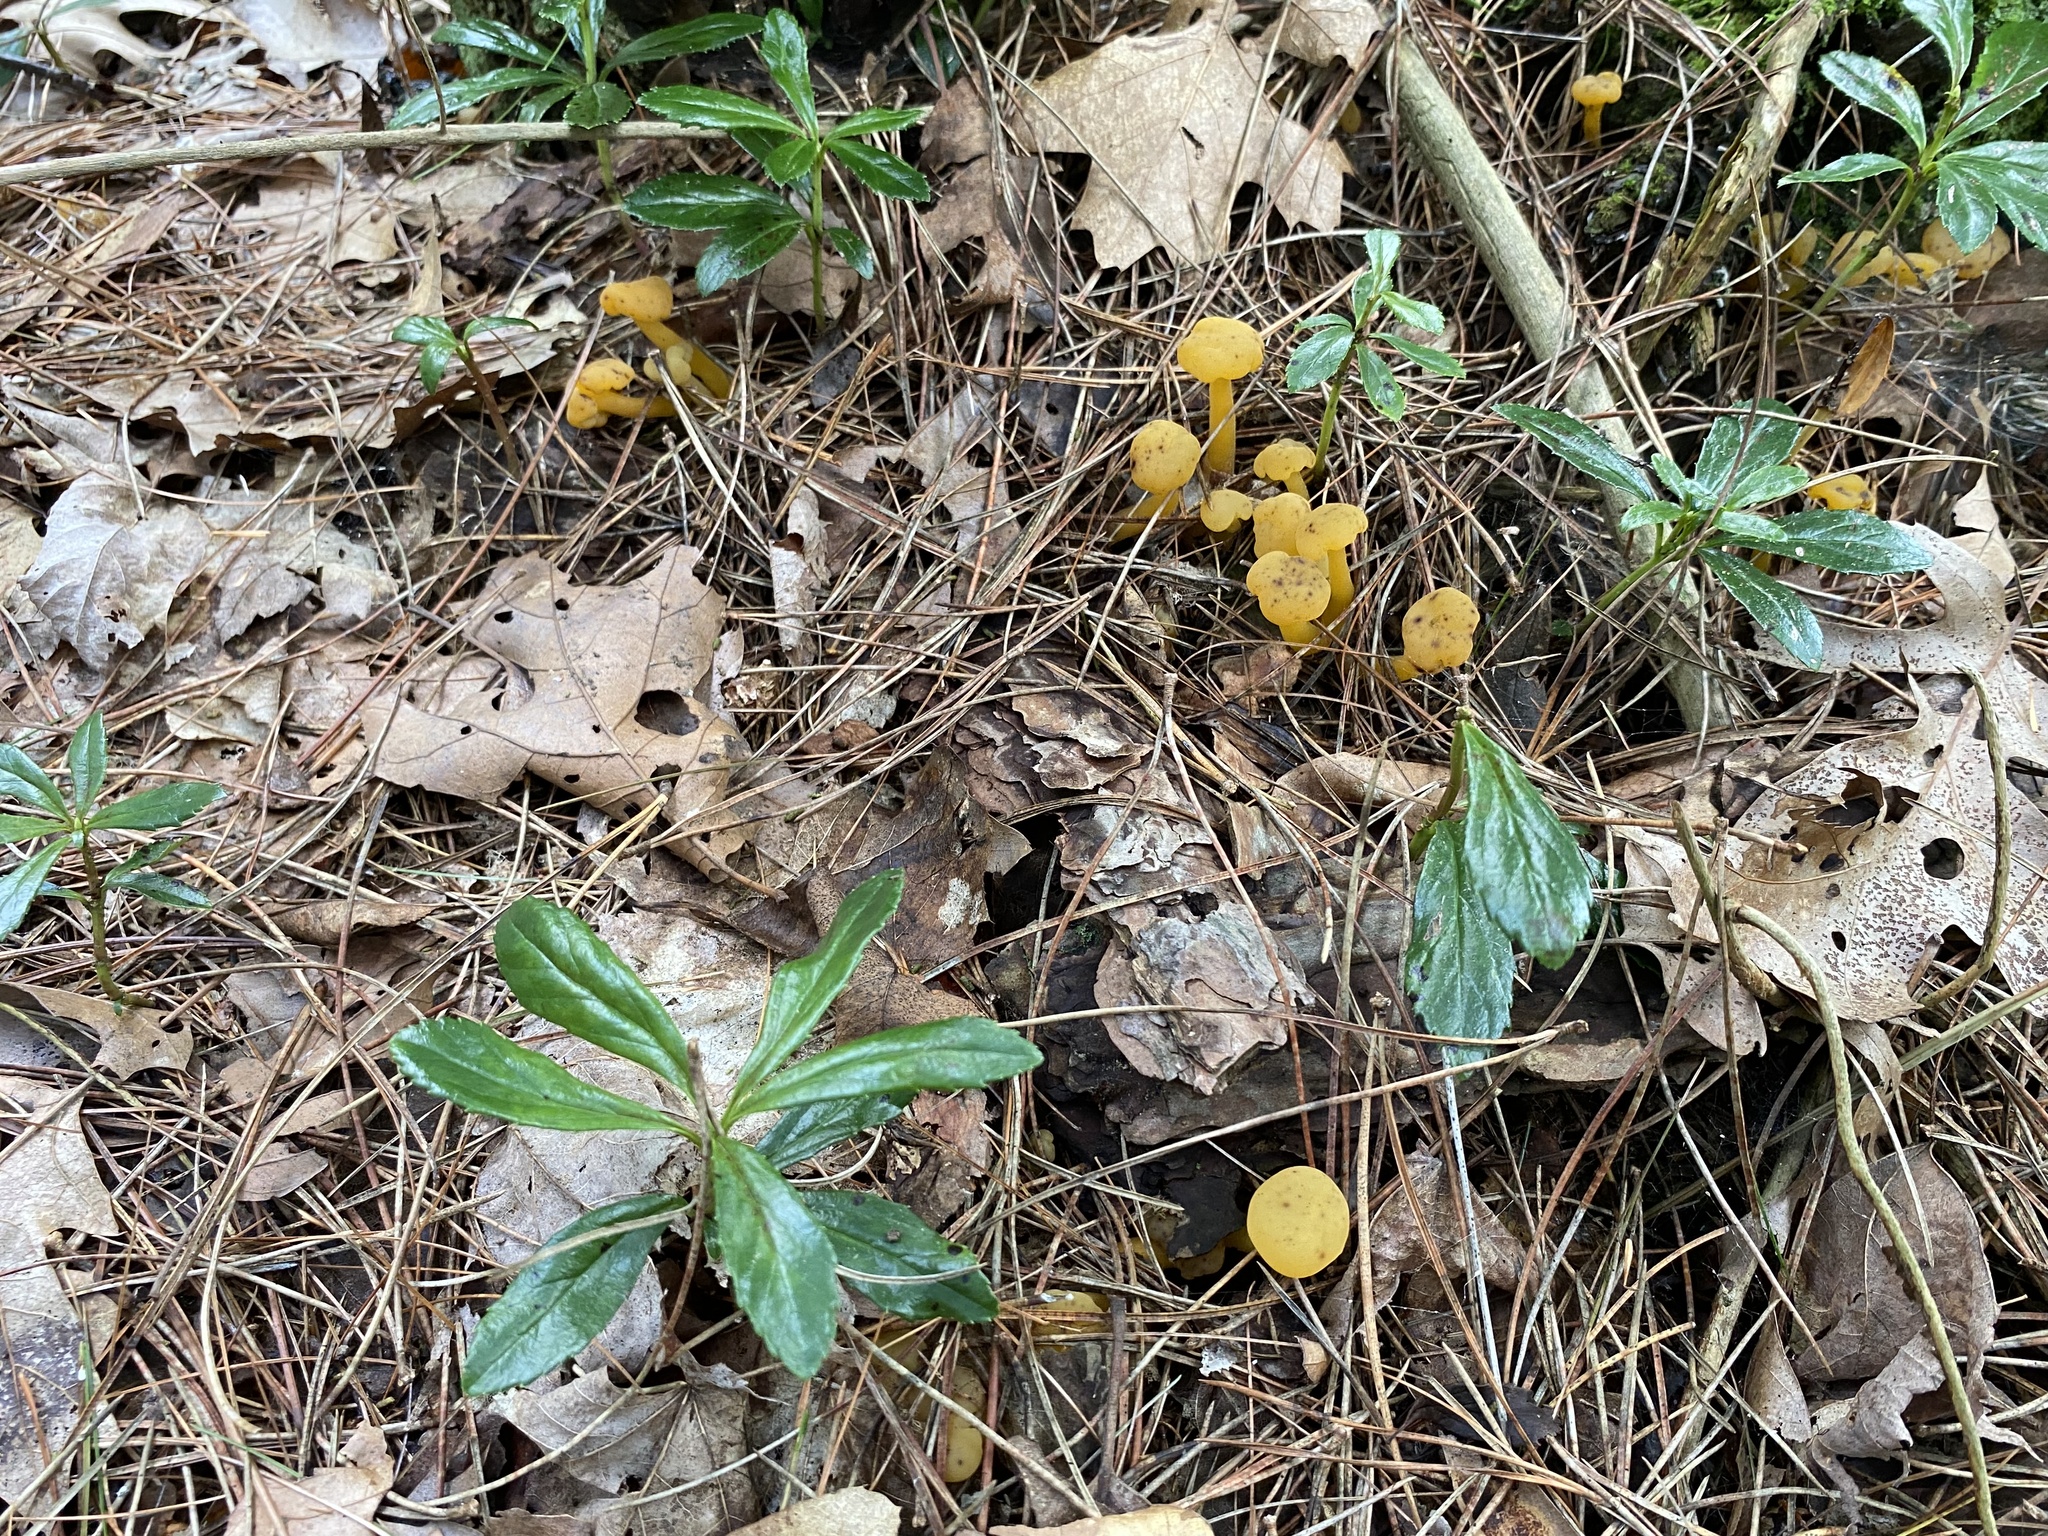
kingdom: Fungi
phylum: Ascomycota
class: Leotiomycetes
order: Leotiales
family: Leotiaceae
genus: Leotia
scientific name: Leotia lubrica
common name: Jellybaby
